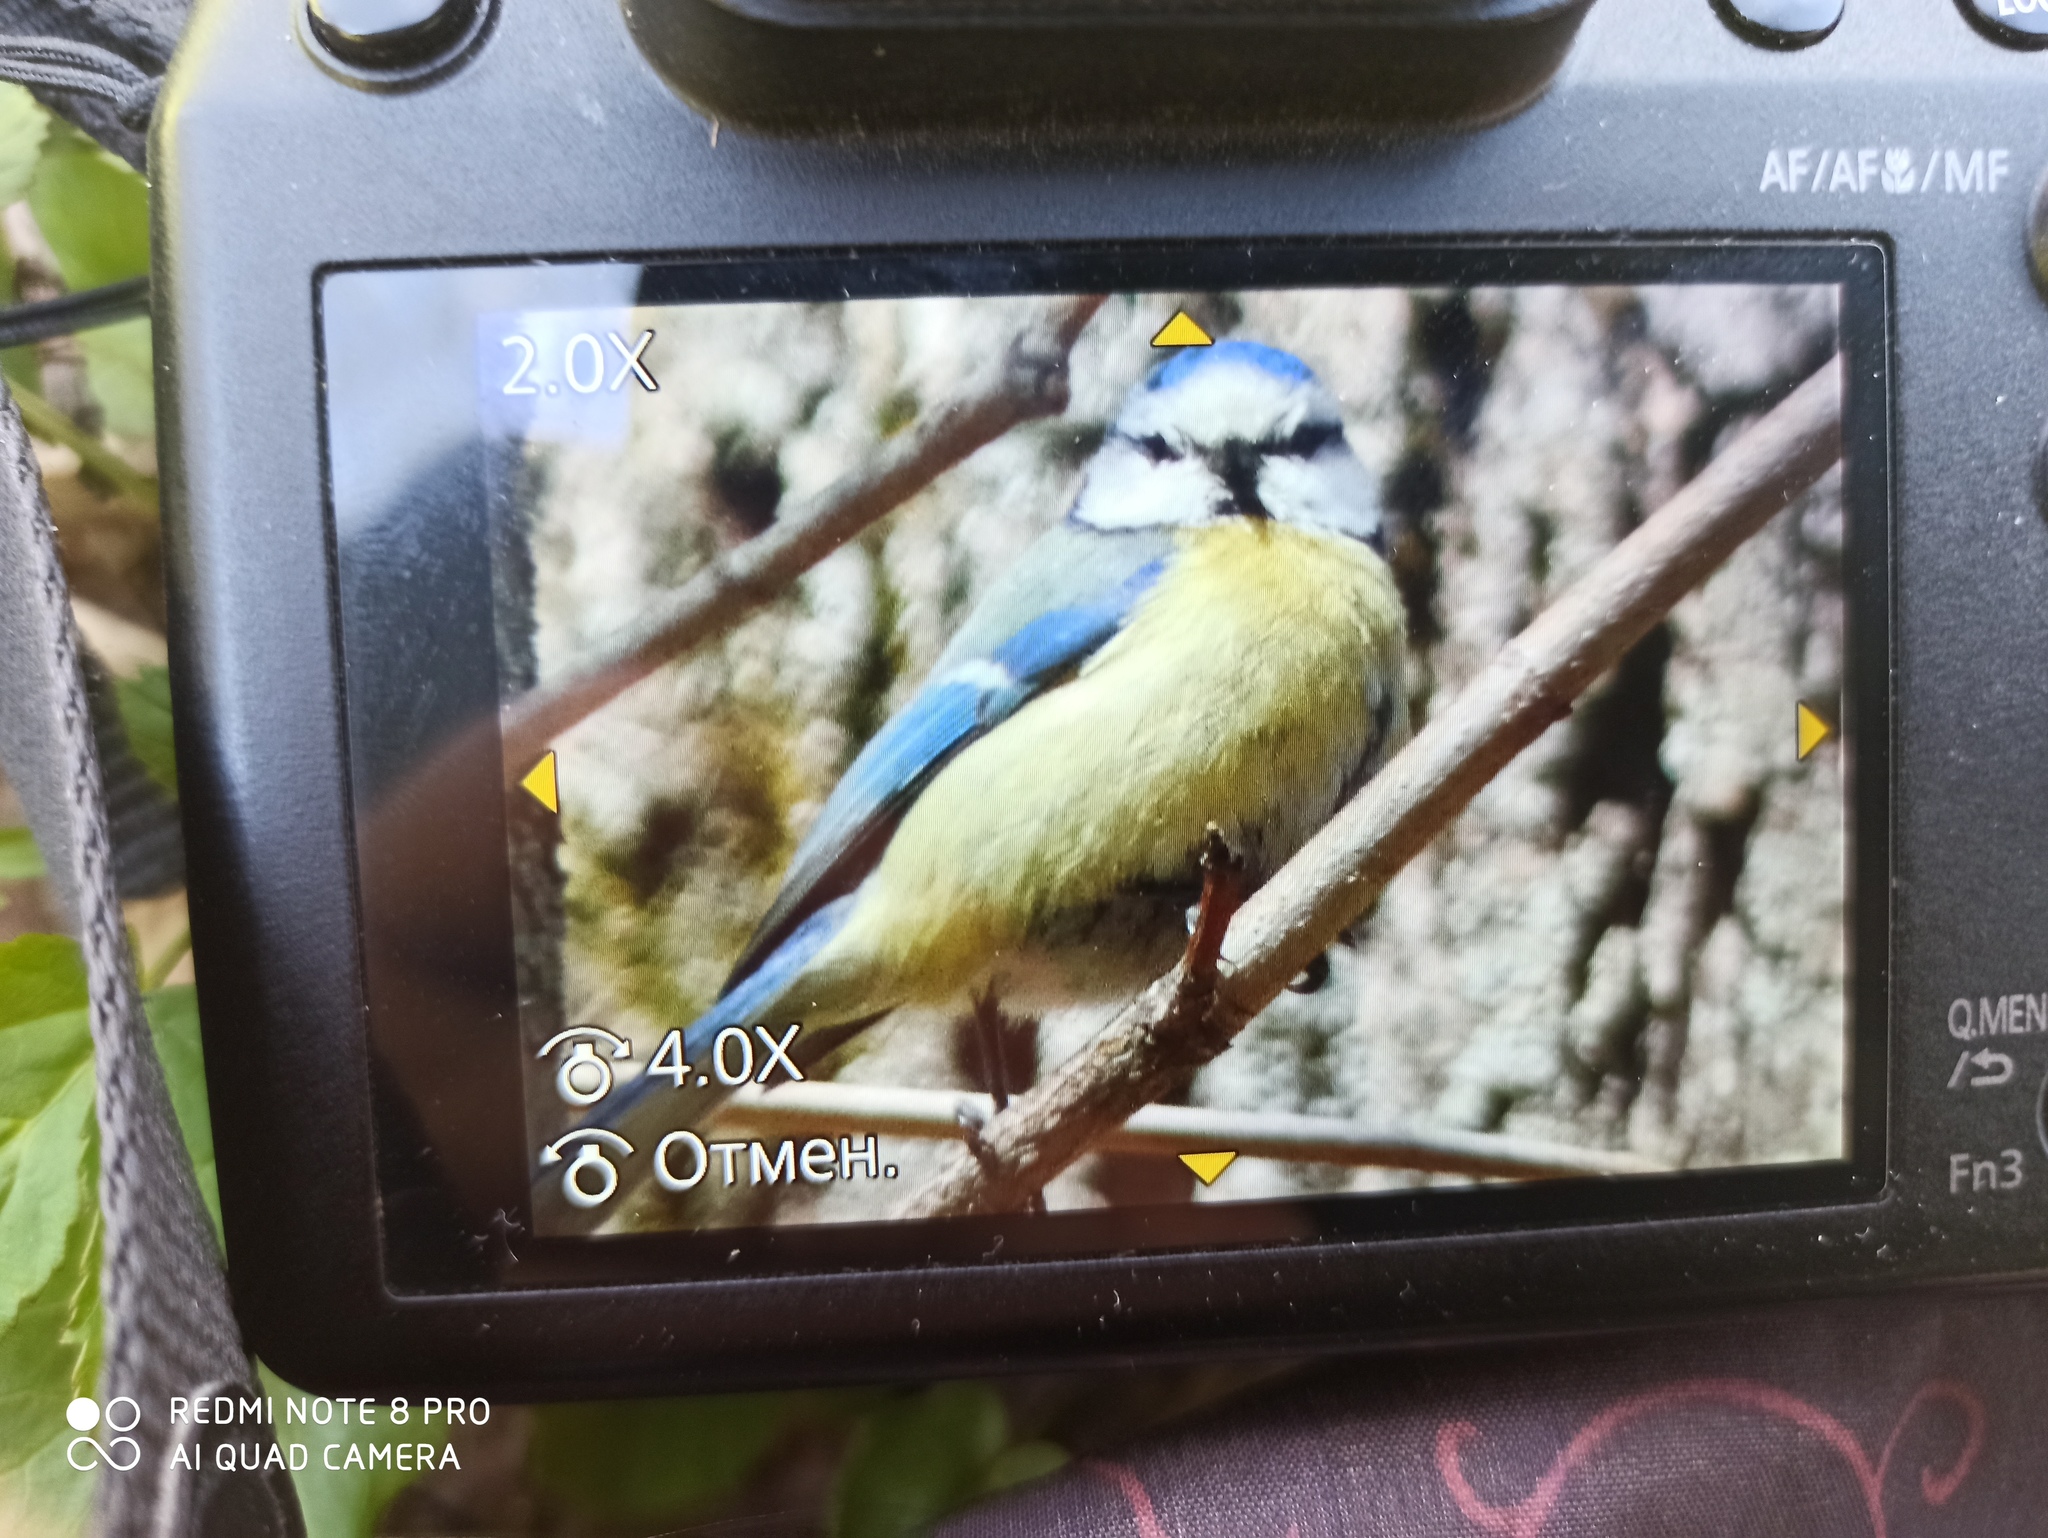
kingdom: Animalia
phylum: Chordata
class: Aves
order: Passeriformes
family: Paridae
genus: Cyanistes
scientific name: Cyanistes caeruleus
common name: Eurasian blue tit
